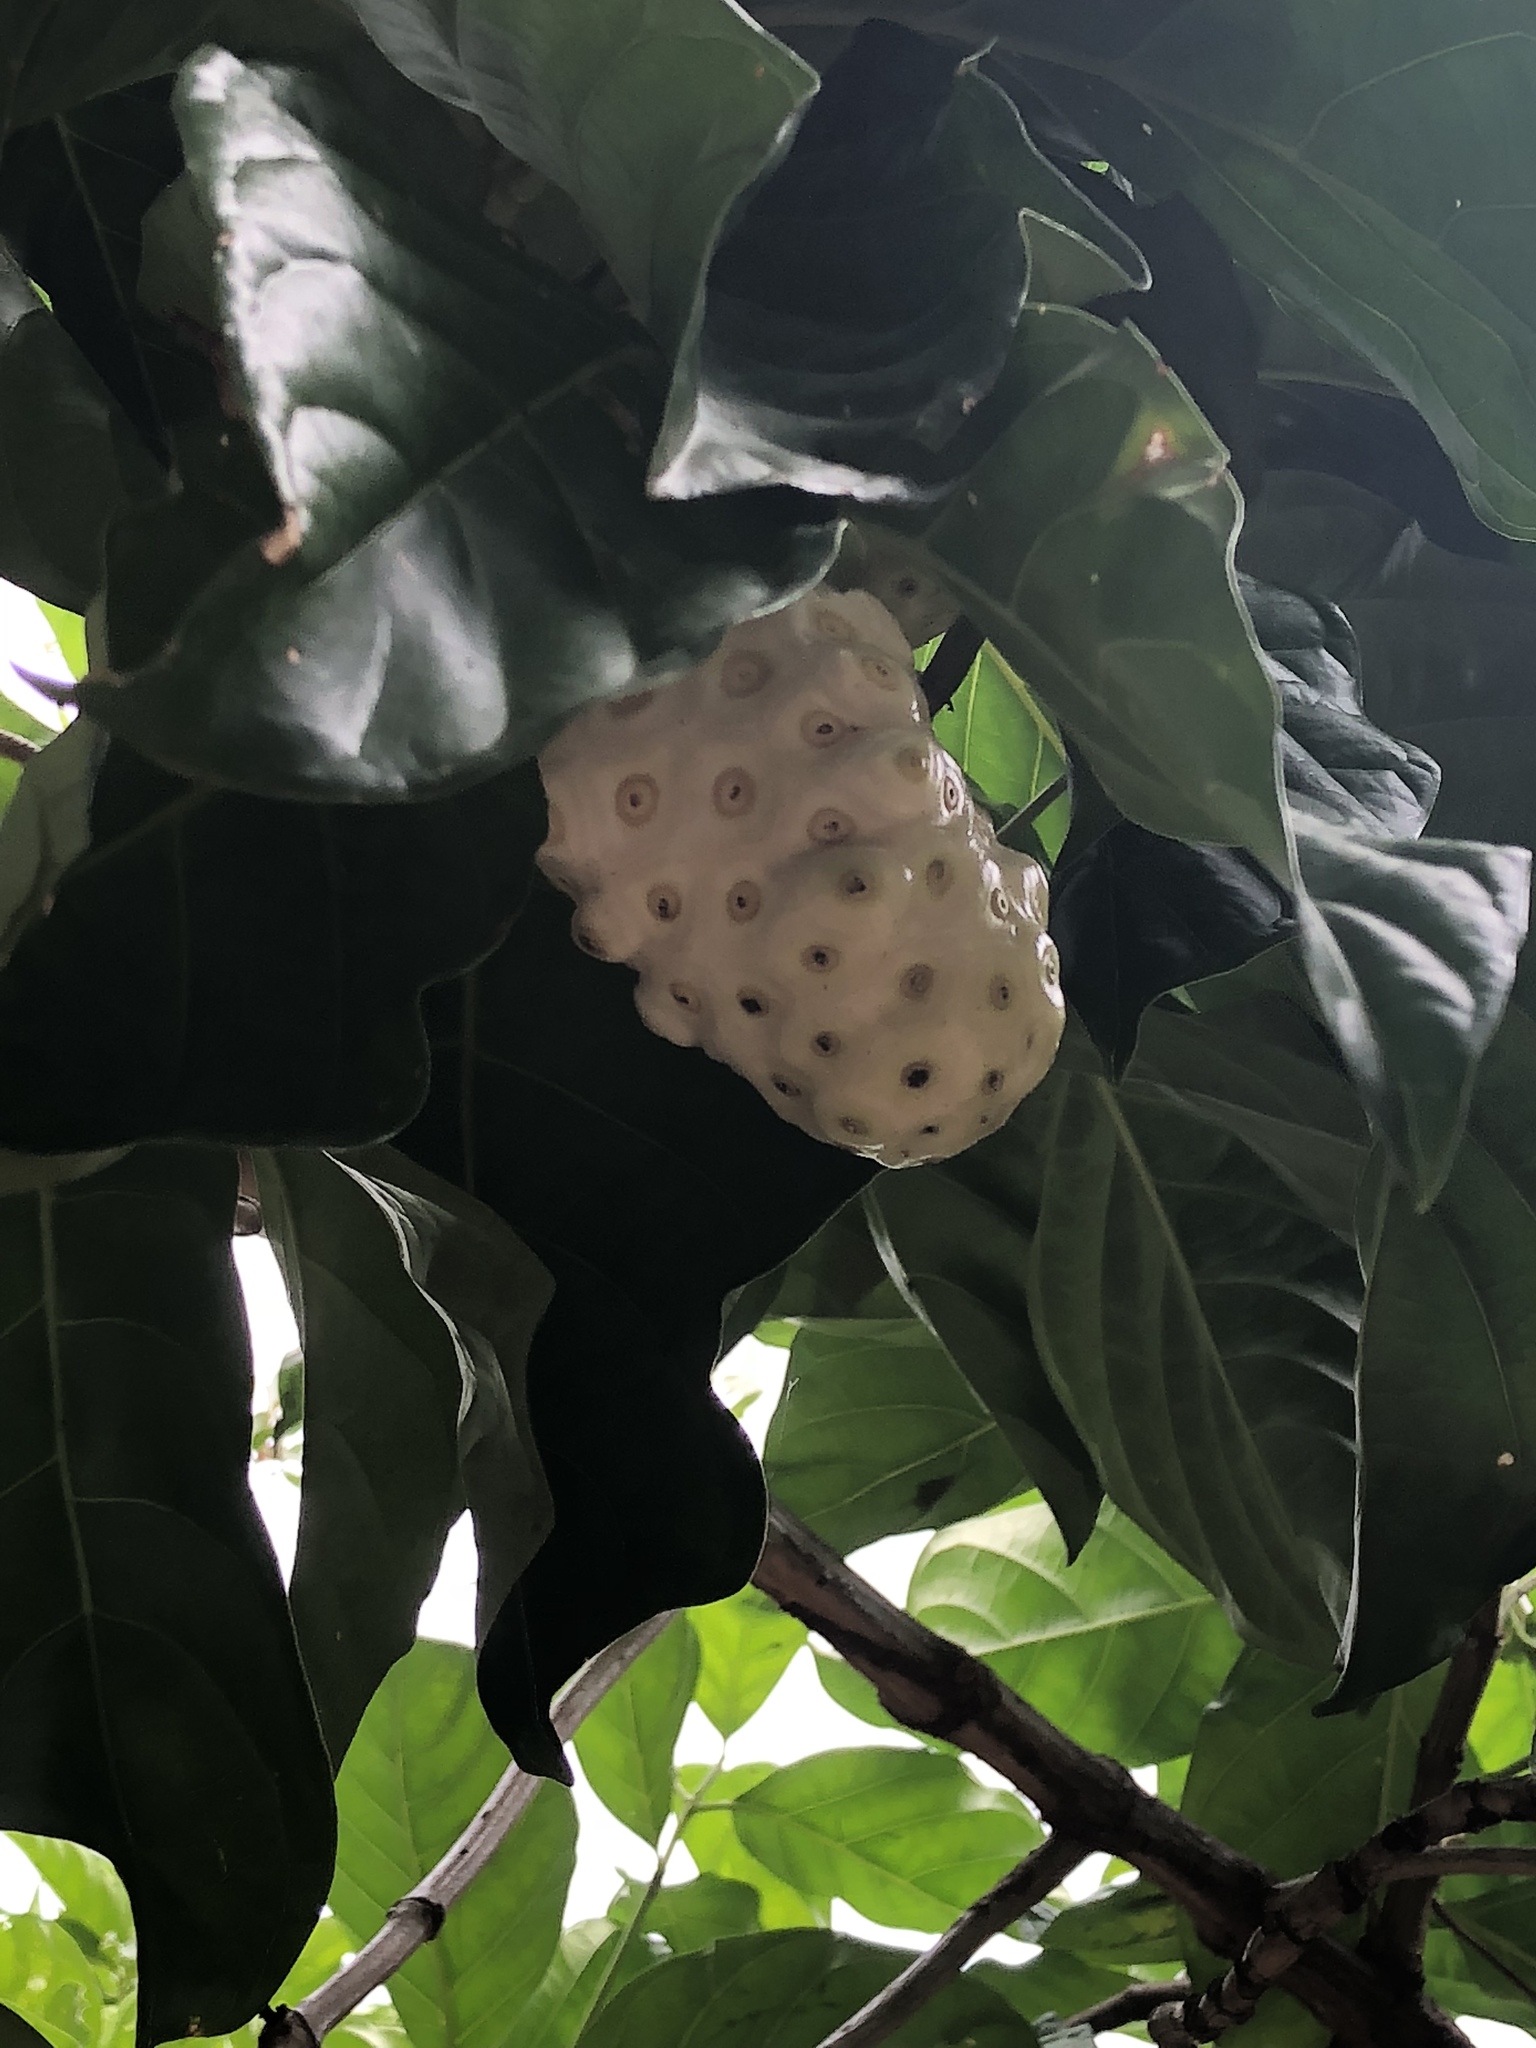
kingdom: Plantae
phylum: Tracheophyta
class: Magnoliopsida
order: Gentianales
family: Rubiaceae
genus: Morinda
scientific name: Morinda citrifolia
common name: Indian-mulberry
